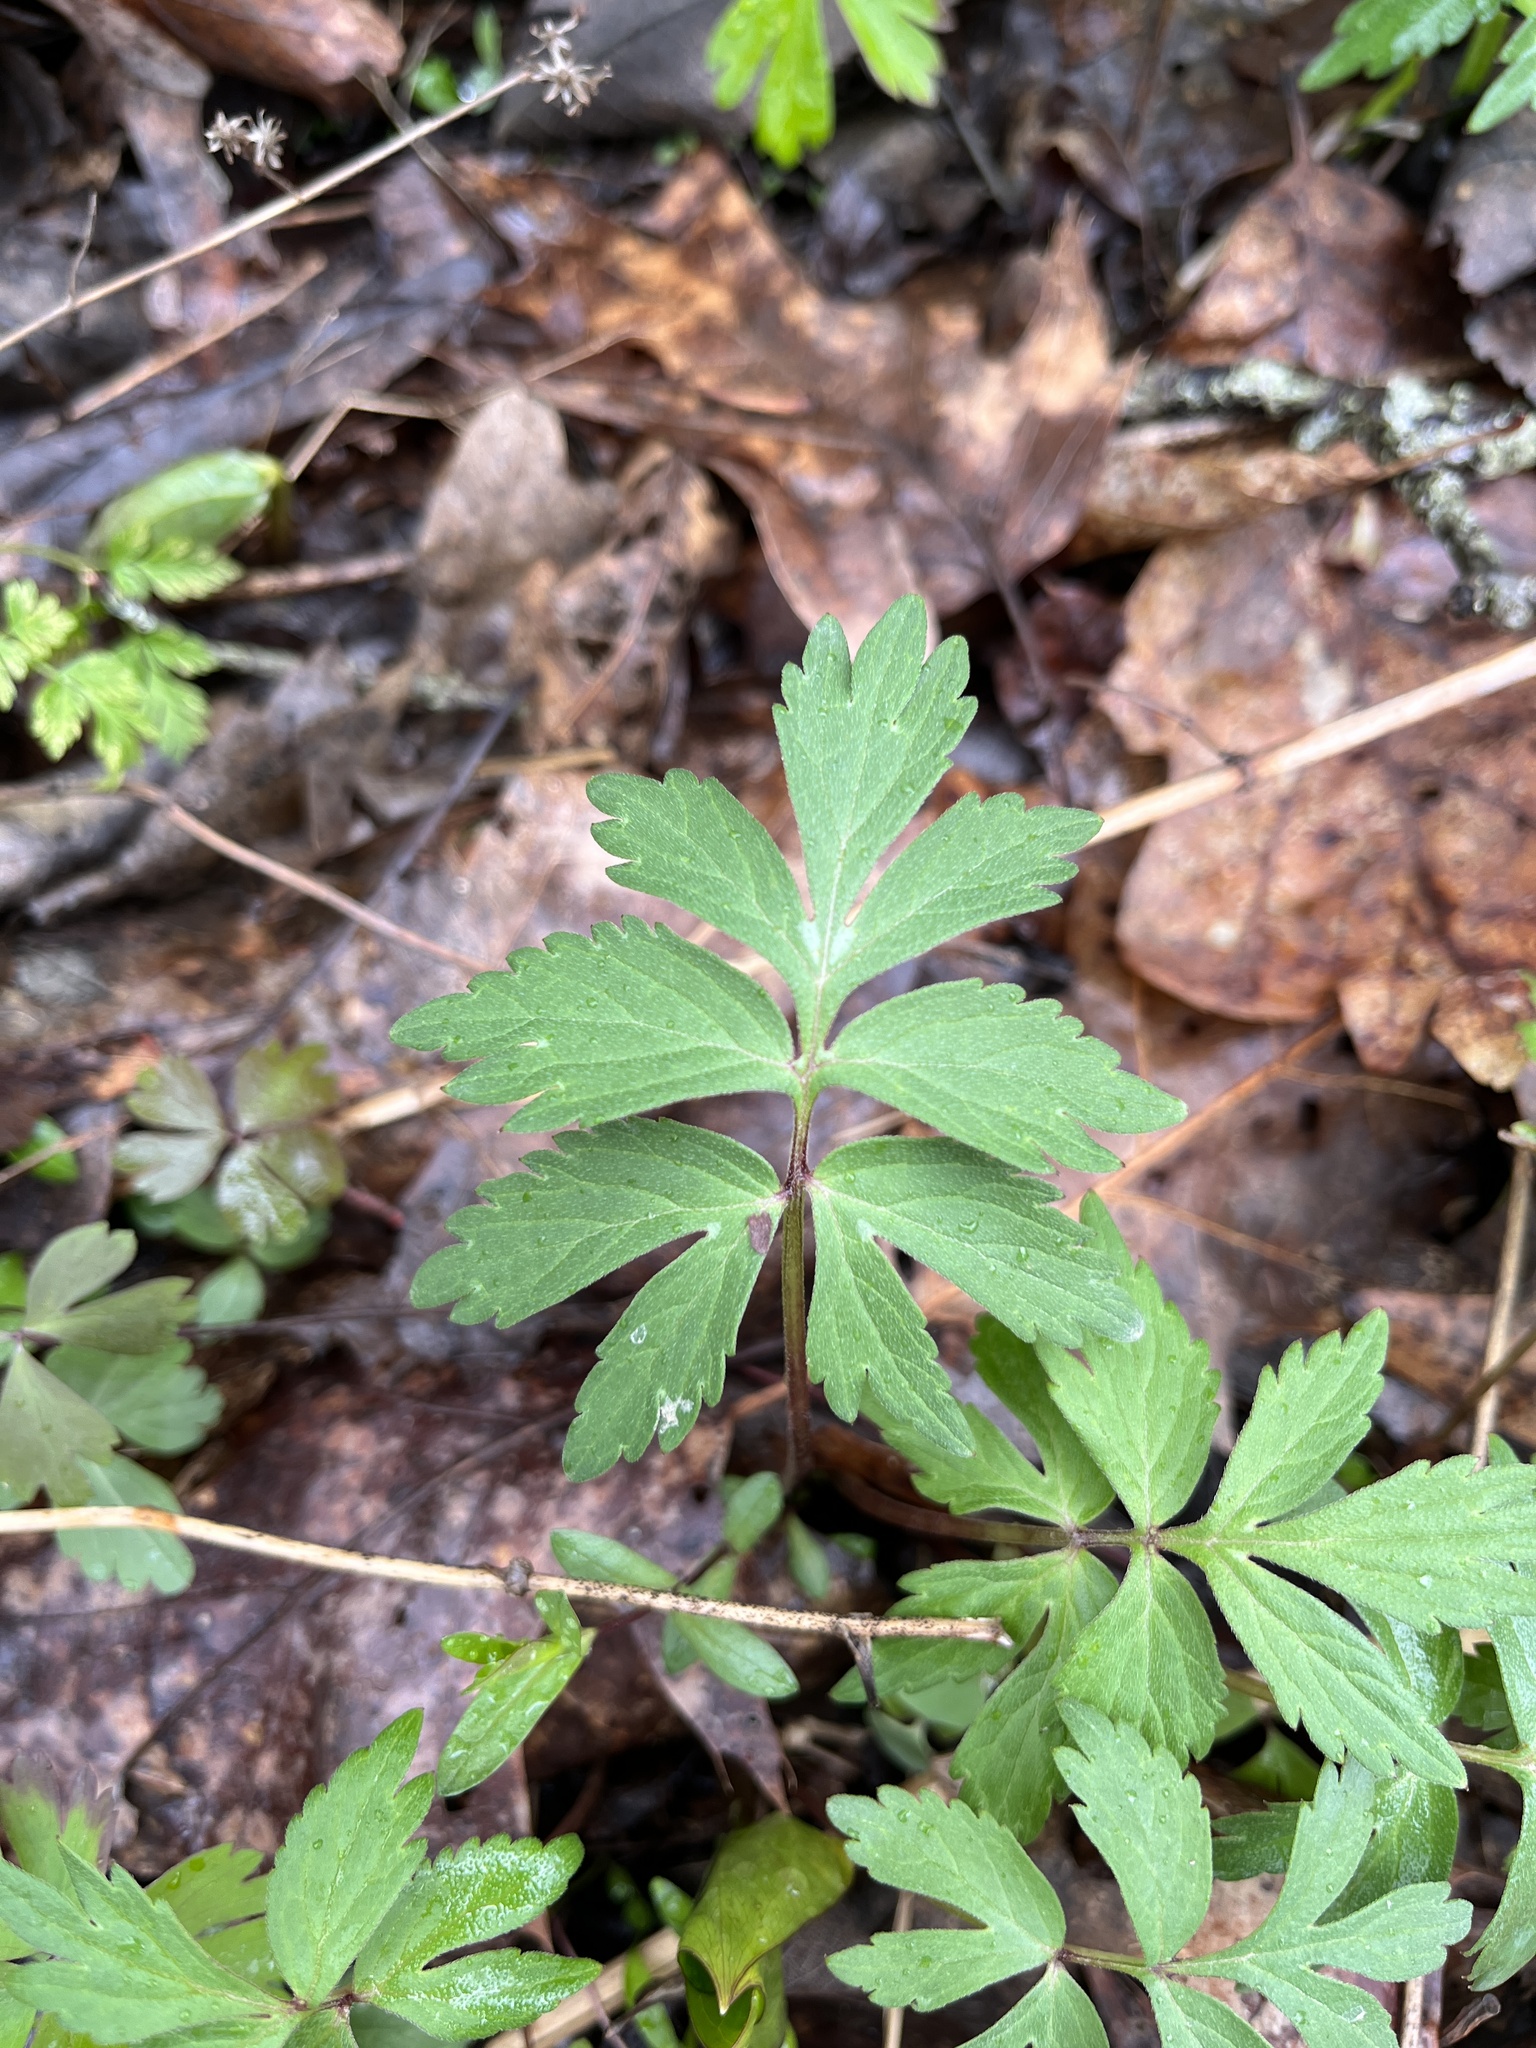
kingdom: Plantae
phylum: Tracheophyta
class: Magnoliopsida
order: Boraginales
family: Hydrophyllaceae
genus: Hydrophyllum
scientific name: Hydrophyllum virginianum
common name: Virginia waterleaf
